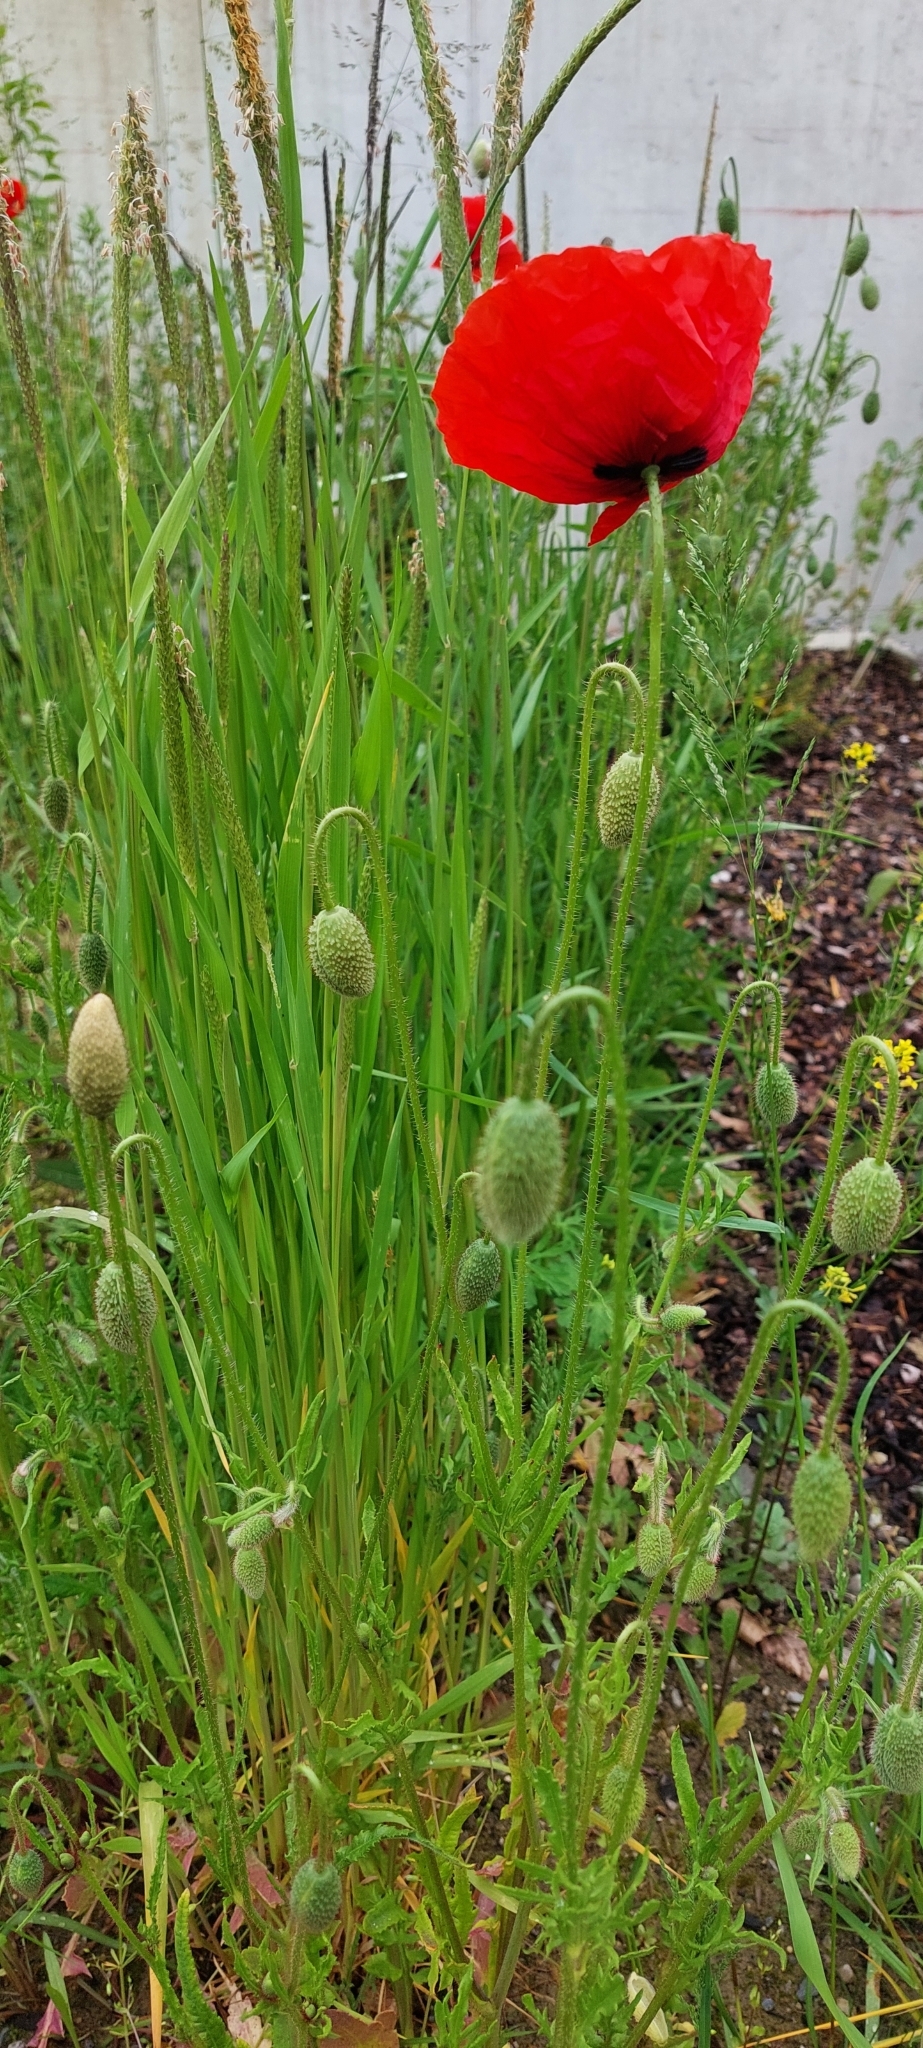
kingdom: Plantae
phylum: Tracheophyta
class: Magnoliopsida
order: Ranunculales
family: Papaveraceae
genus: Papaver
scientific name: Papaver rhoeas
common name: Corn poppy
